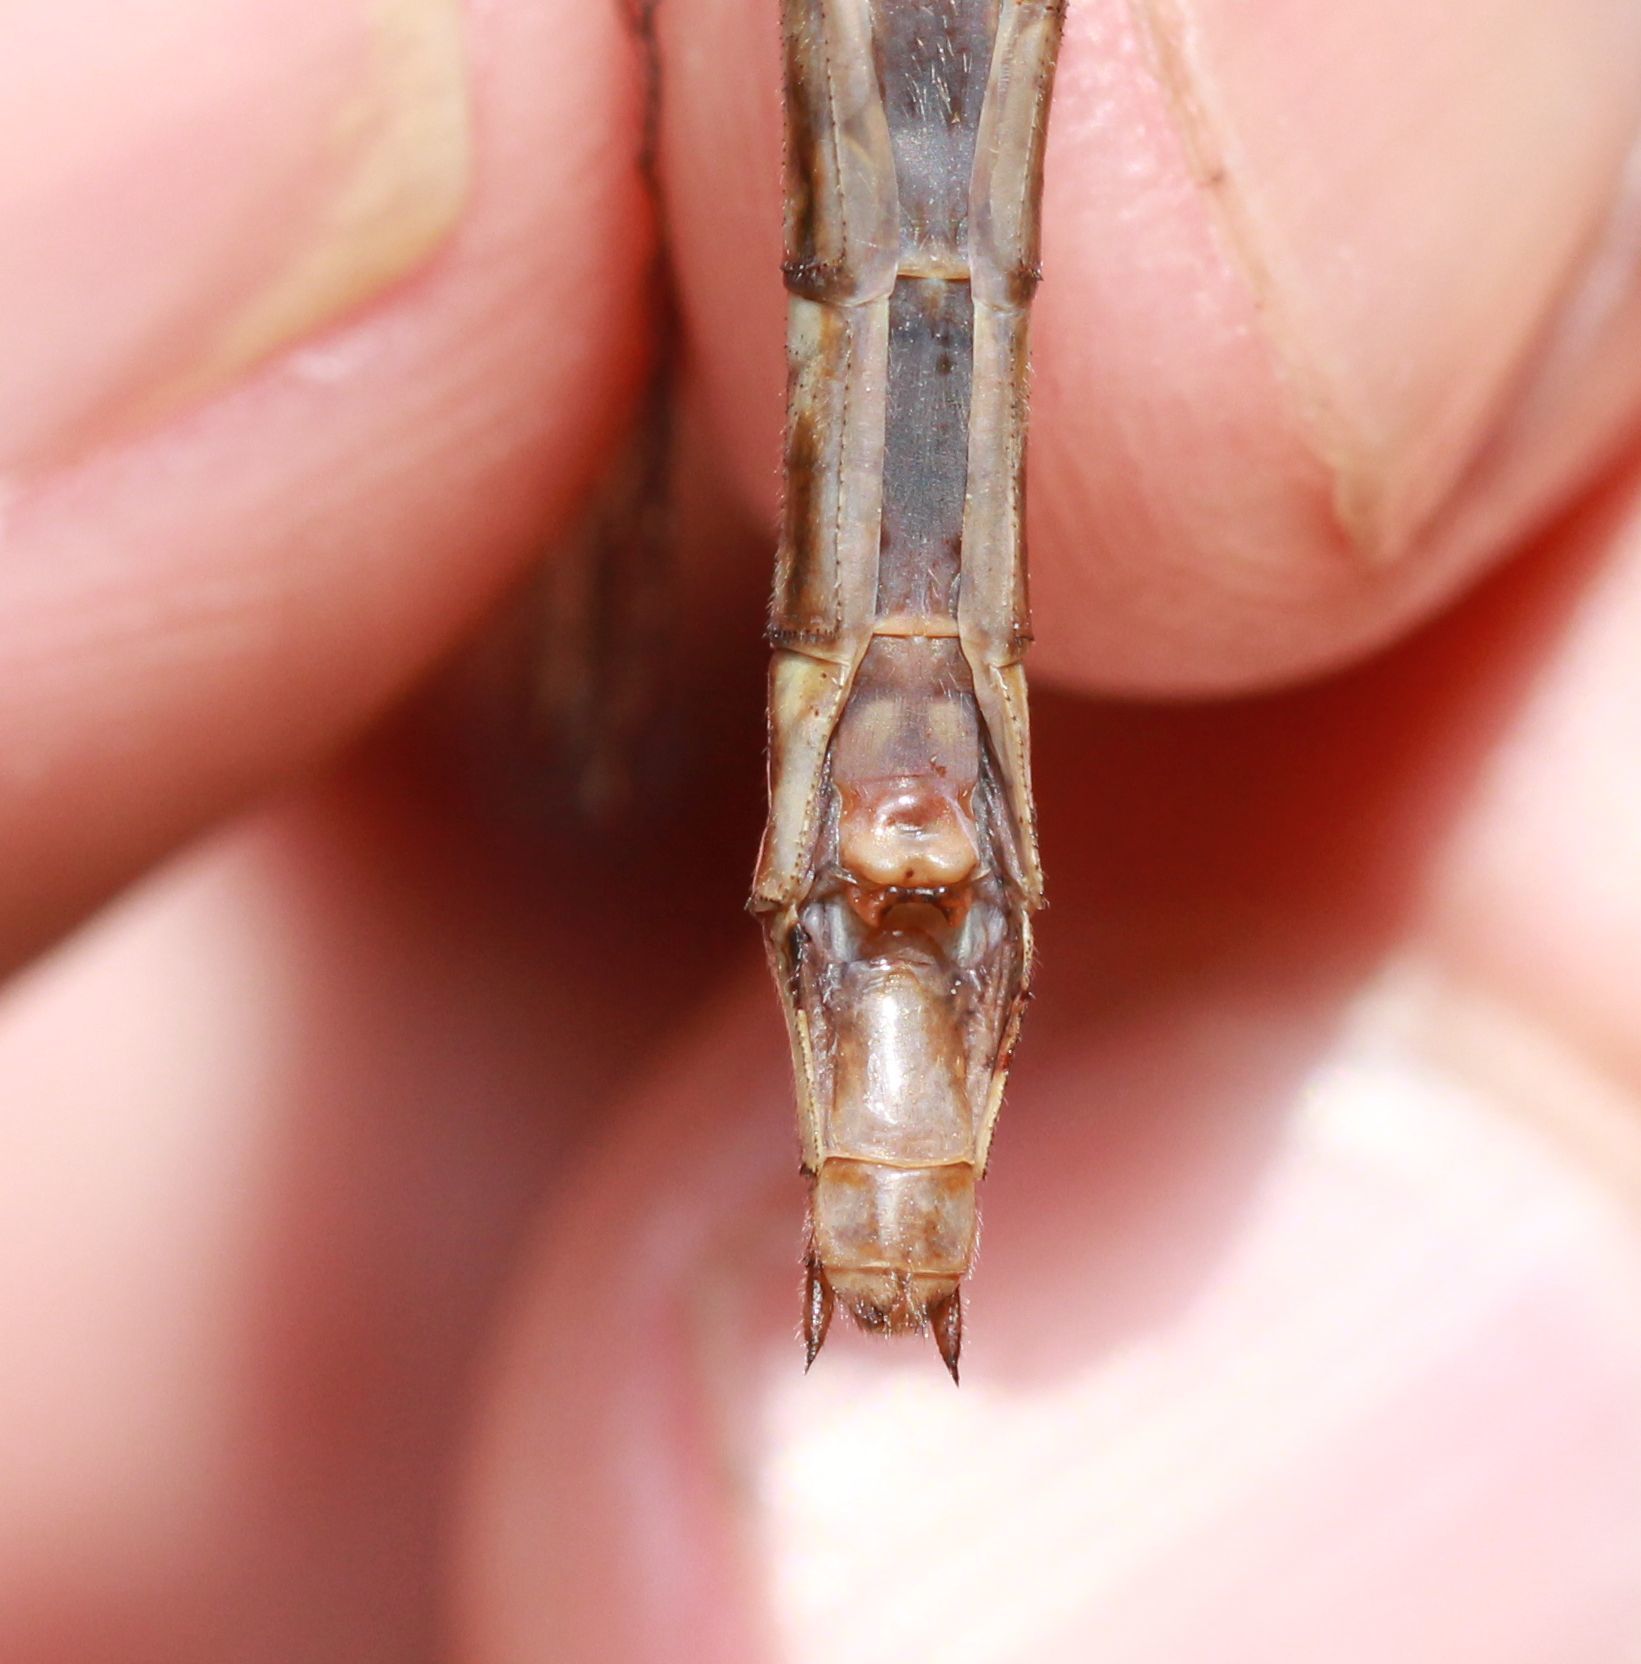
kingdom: Animalia
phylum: Arthropoda
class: Insecta
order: Odonata
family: Gomphidae
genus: Phanogomphus
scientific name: Phanogomphus lividus
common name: Ashy clubtail
